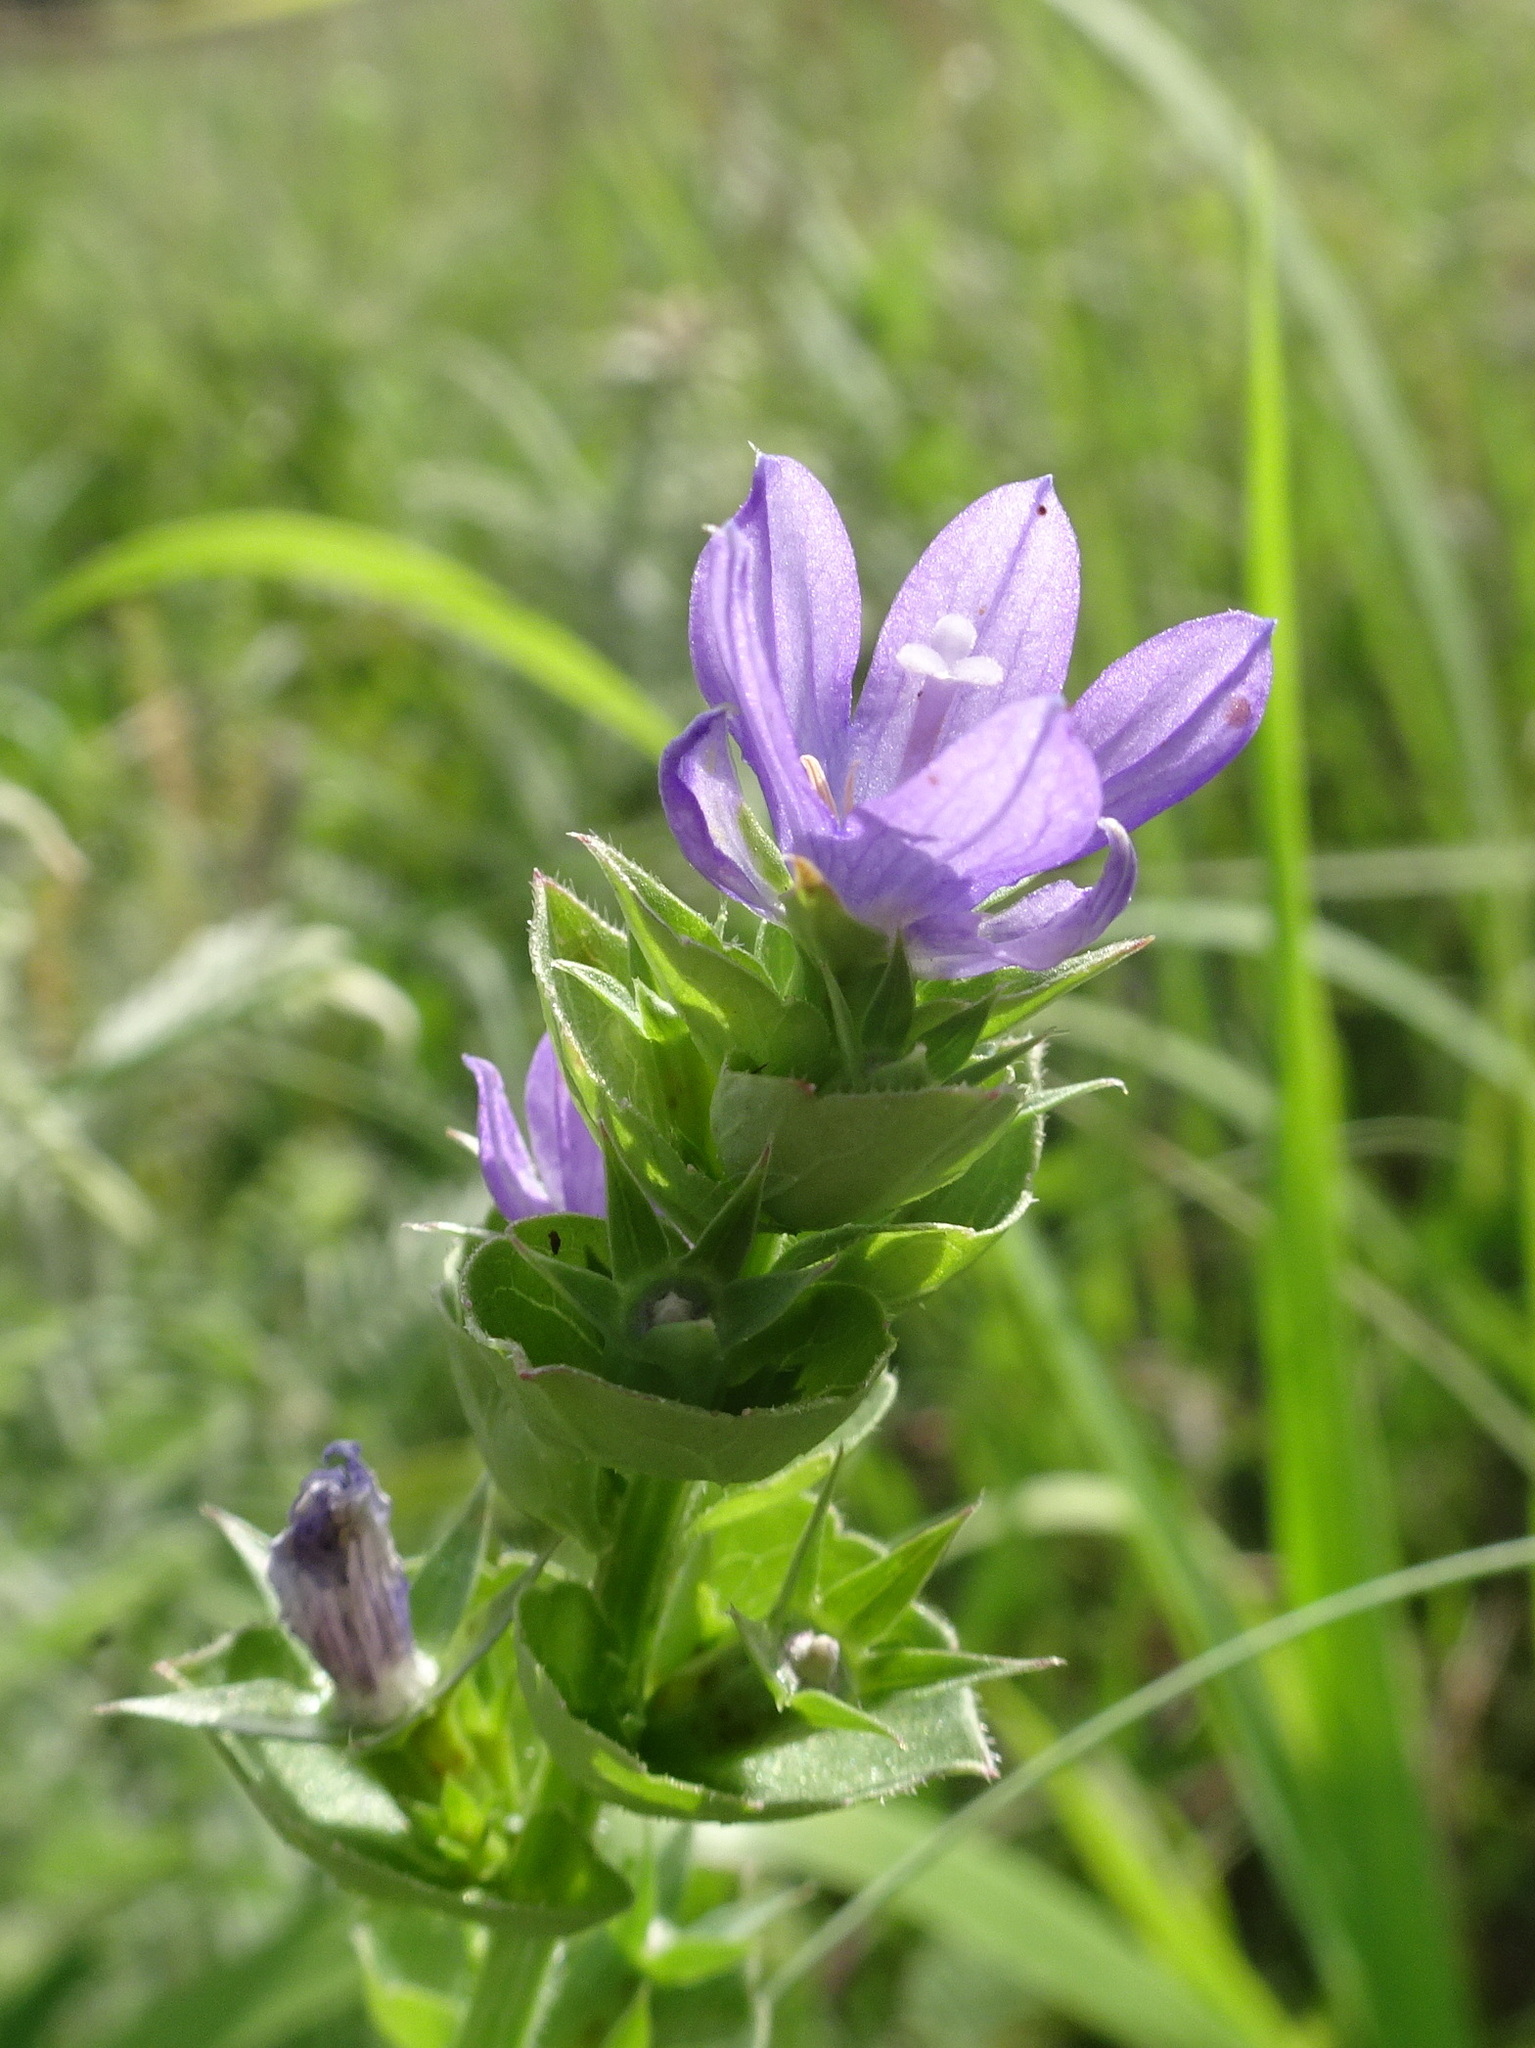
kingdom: Plantae
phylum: Tracheophyta
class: Magnoliopsida
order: Asterales
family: Campanulaceae
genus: Triodanis
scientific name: Triodanis perfoliata
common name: Clasping venus' looking-glass
